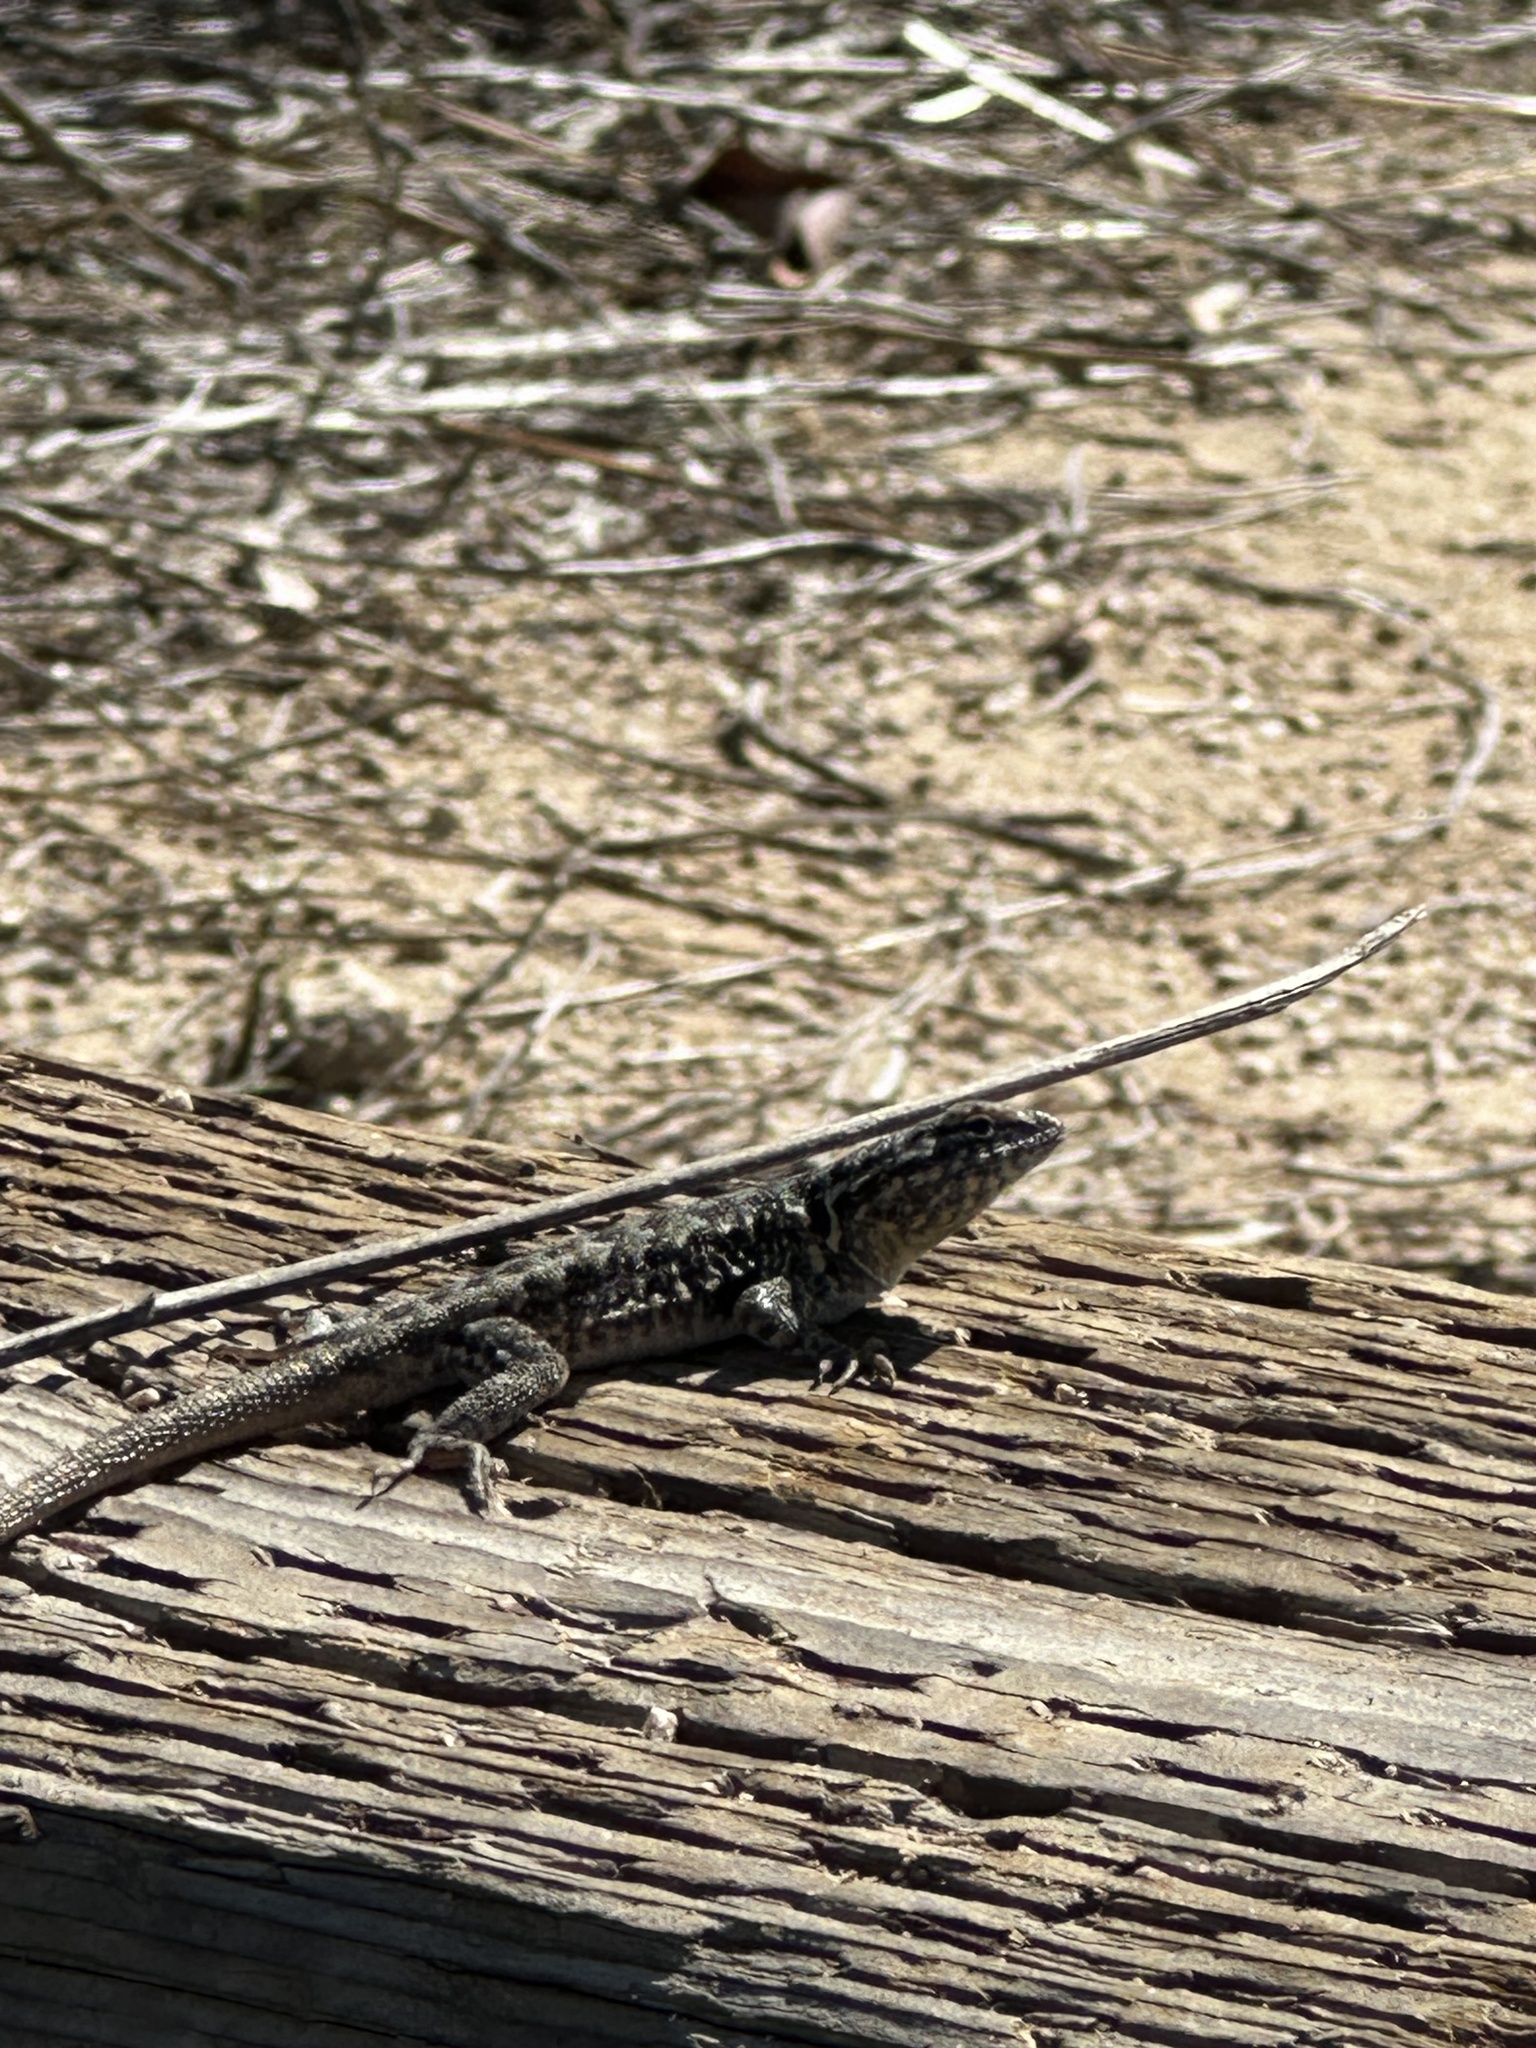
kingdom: Animalia
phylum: Chordata
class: Squamata
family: Phrynosomatidae
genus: Uta
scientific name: Uta stansburiana
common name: Side-blotched lizard
